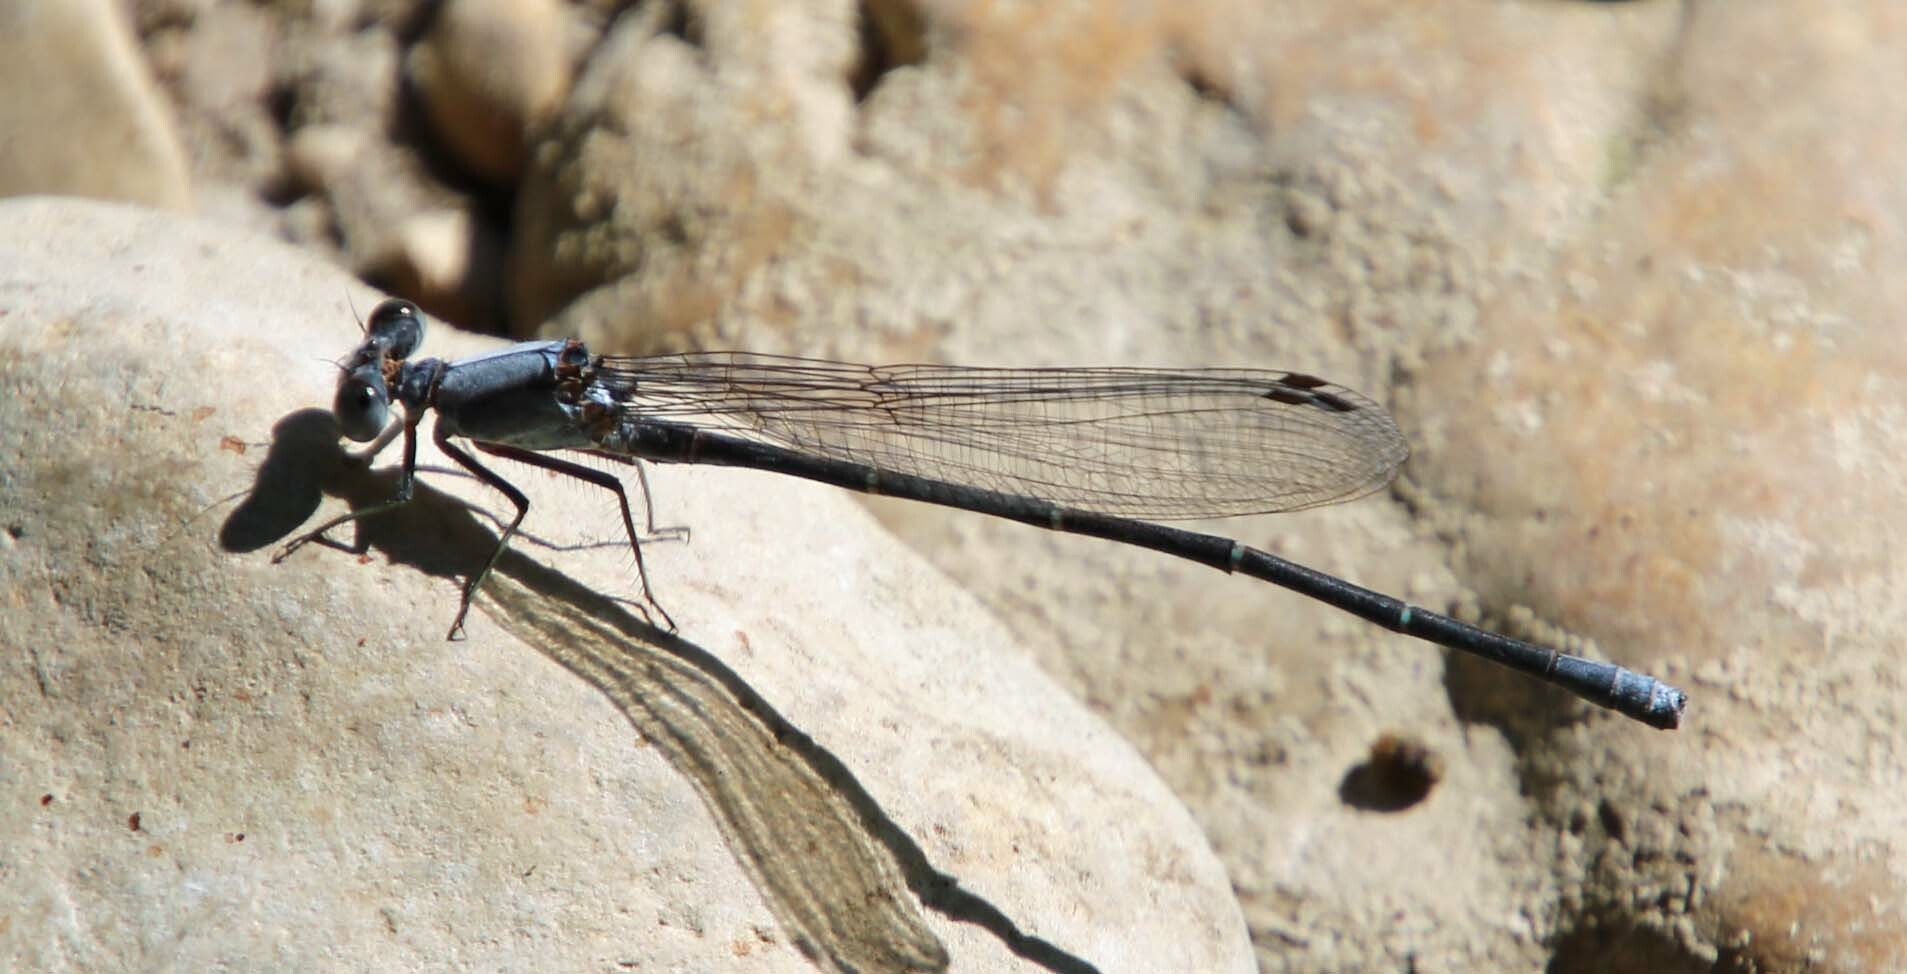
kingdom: Animalia
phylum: Arthropoda
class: Insecta
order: Odonata
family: Coenagrionidae
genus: Argia
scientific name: Argia moesta
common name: Powdered dancer
